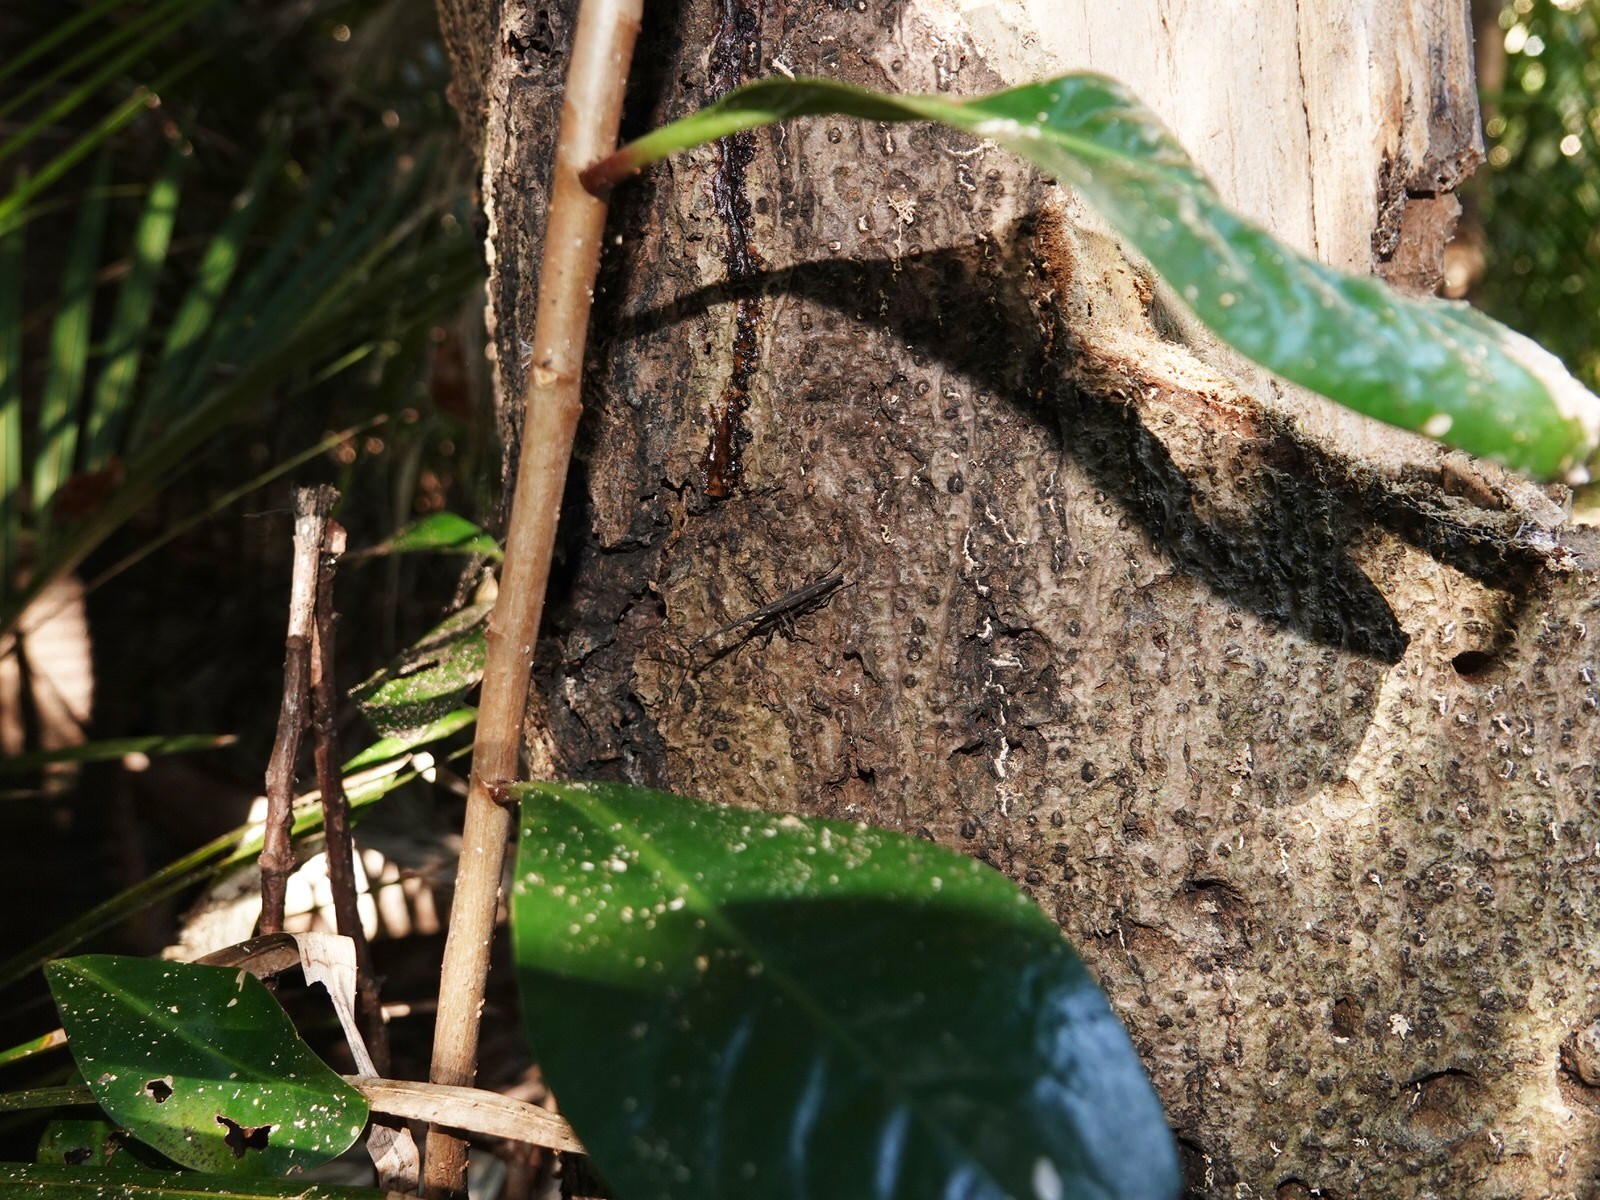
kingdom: Animalia
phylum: Arthropoda
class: Insecta
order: Coleoptera
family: Brentidae
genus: Lasiorhynchus
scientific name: Lasiorhynchus barbicornis
